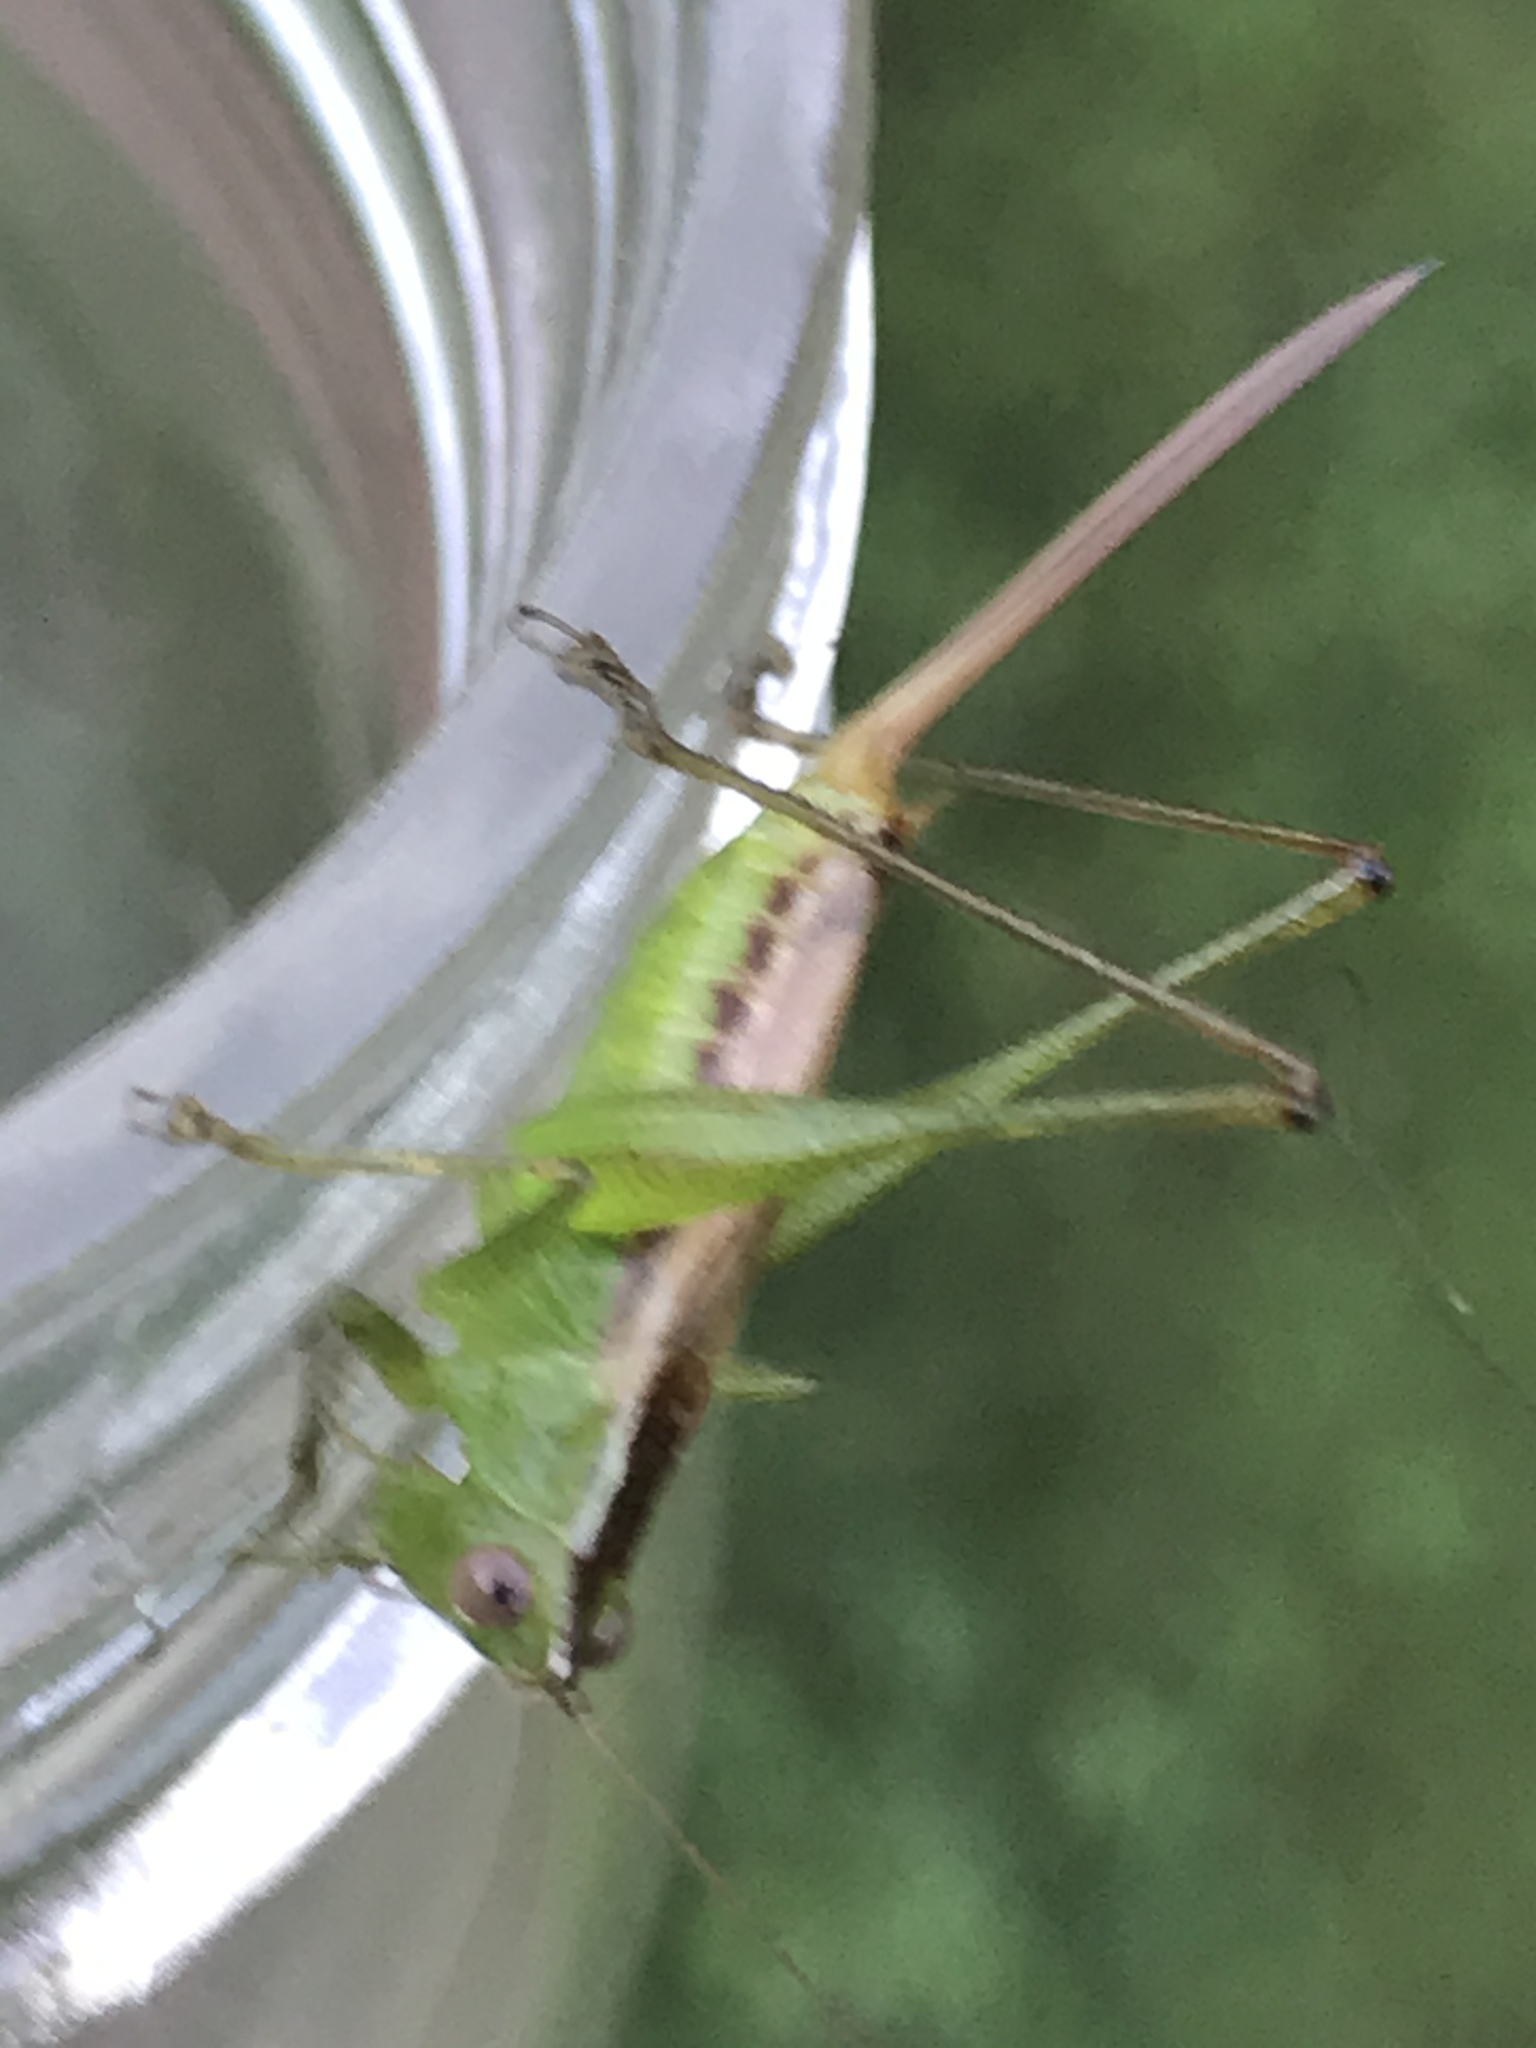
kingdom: Animalia
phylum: Arthropoda
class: Insecta
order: Orthoptera
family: Tettigoniidae
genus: Conocephalus
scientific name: Conocephalus brevipennis
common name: Short-winged meadow katydid
